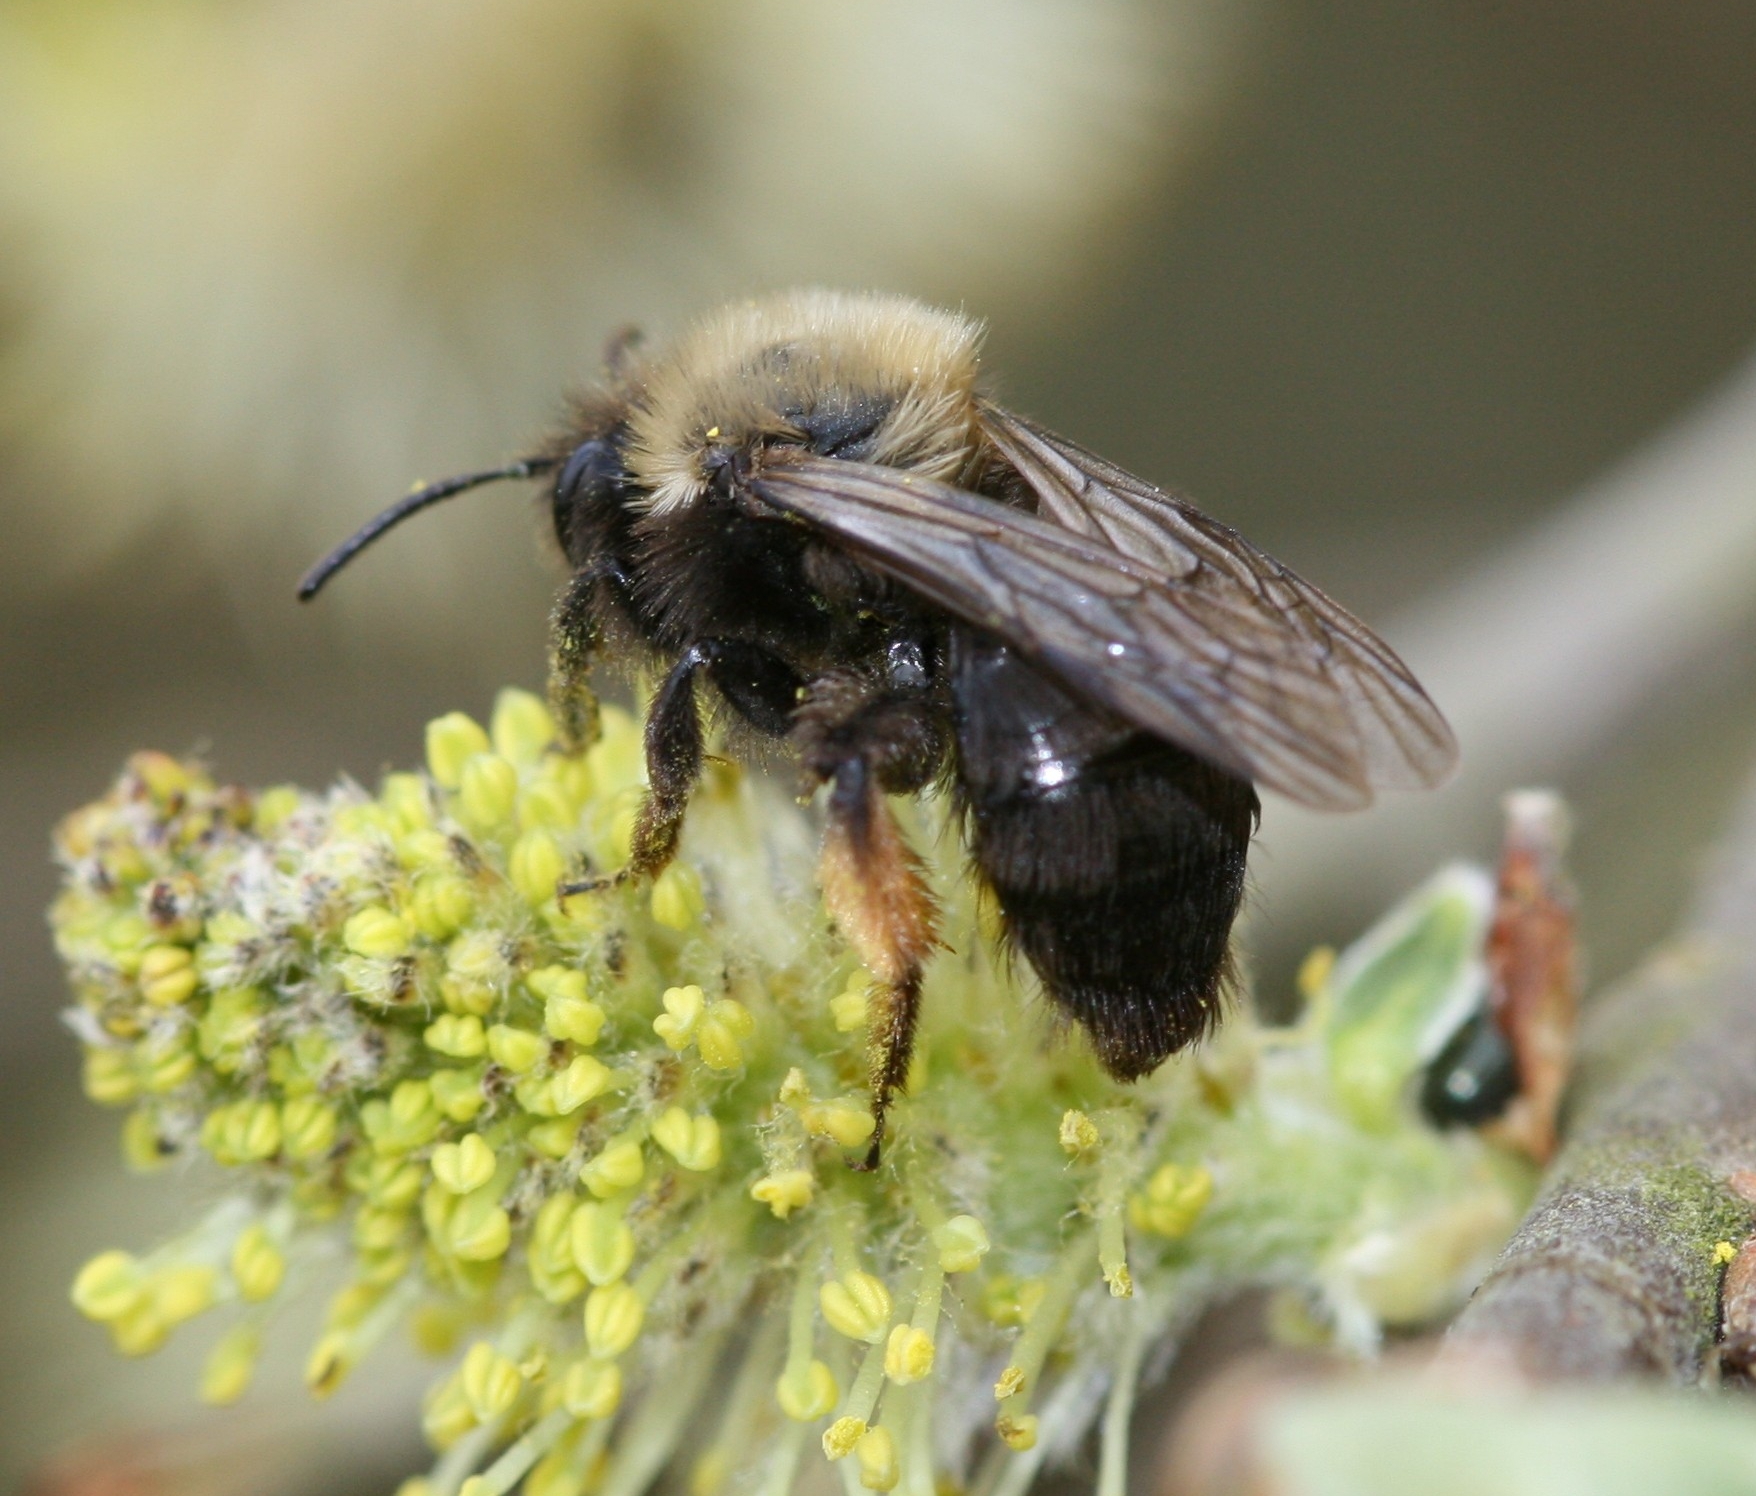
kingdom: Animalia
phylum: Arthropoda
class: Insecta
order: Hymenoptera
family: Andrenidae
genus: Andrena
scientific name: Andrena clarkella
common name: Clarke's mining bee
